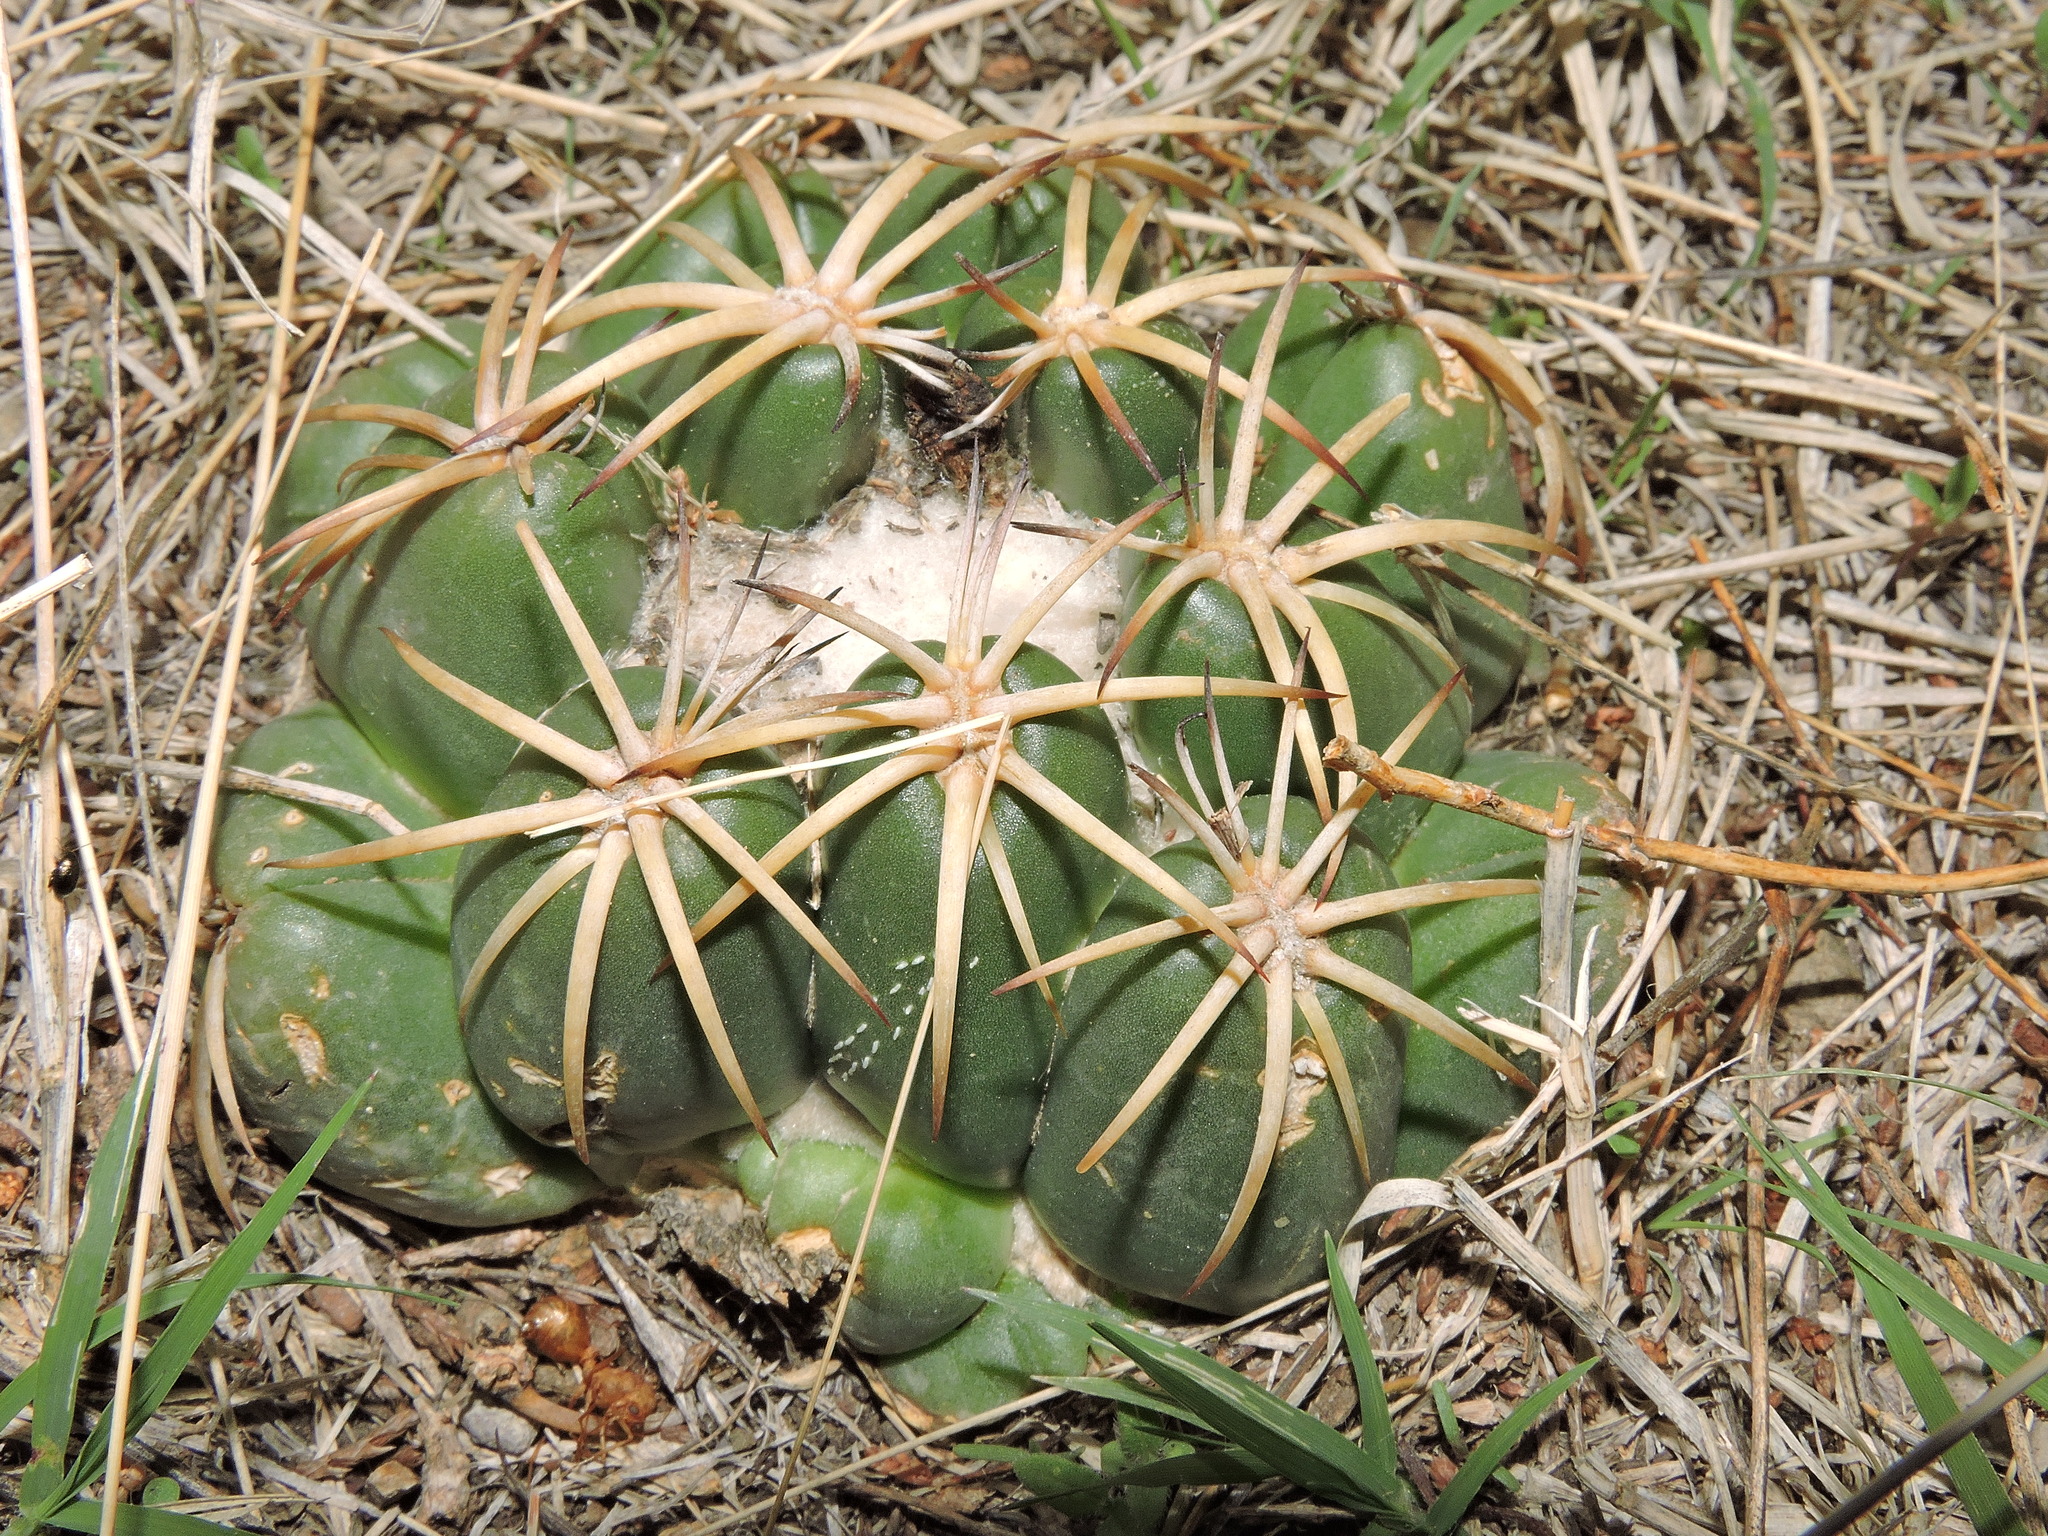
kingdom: Plantae
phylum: Tracheophyta
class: Magnoliopsida
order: Caryophyllales
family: Cactaceae
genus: Coryphantha
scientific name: Coryphantha elephantidens
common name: Elephant's tooth
